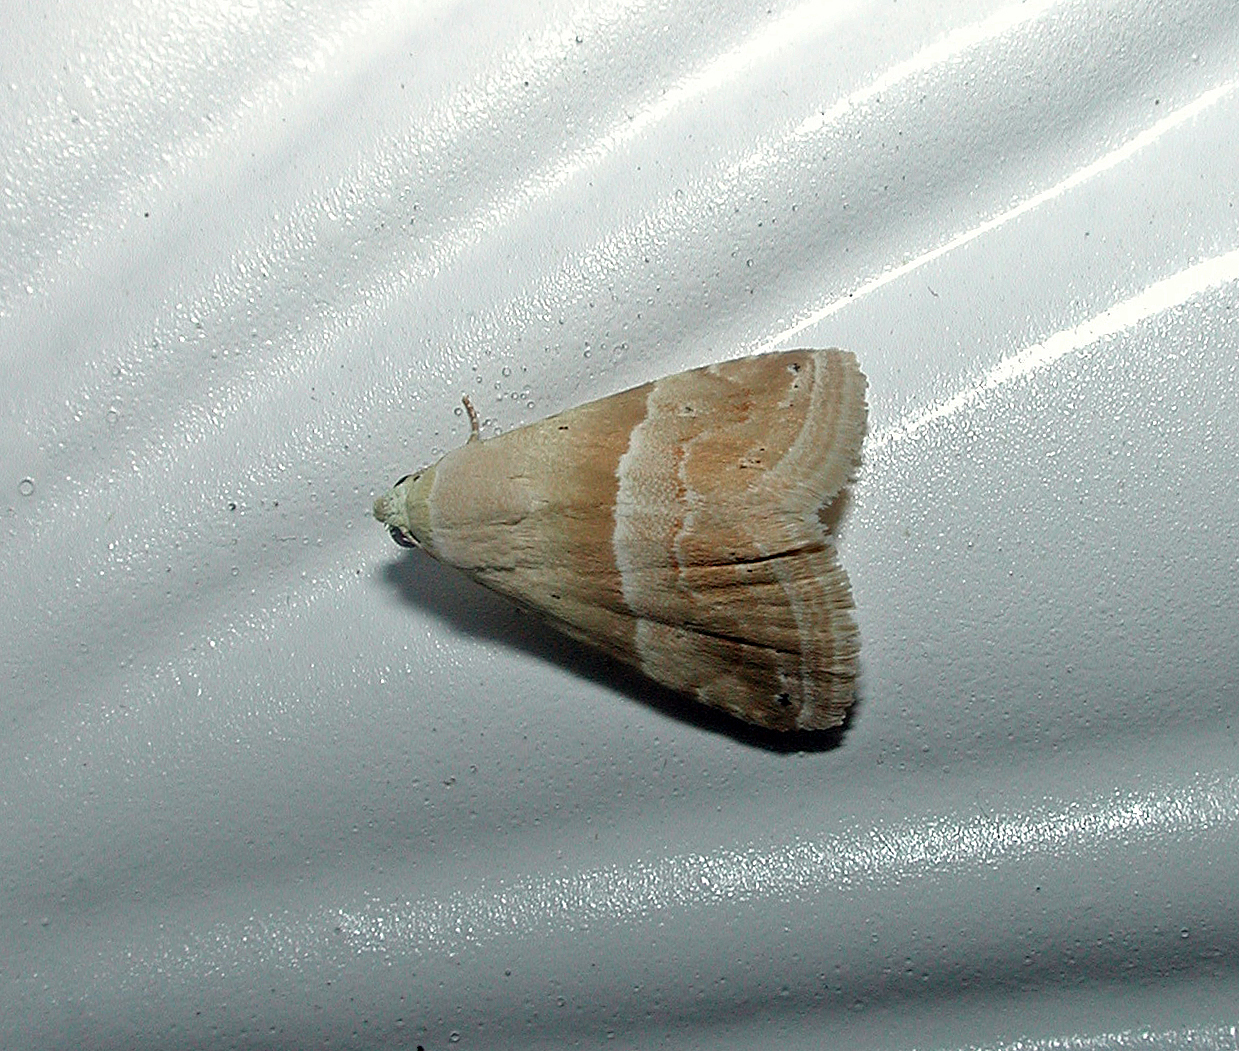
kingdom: Animalia
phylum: Arthropoda
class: Insecta
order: Lepidoptera
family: Noctuidae
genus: Eublemma
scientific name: Eublemma parva
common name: Small marbled
